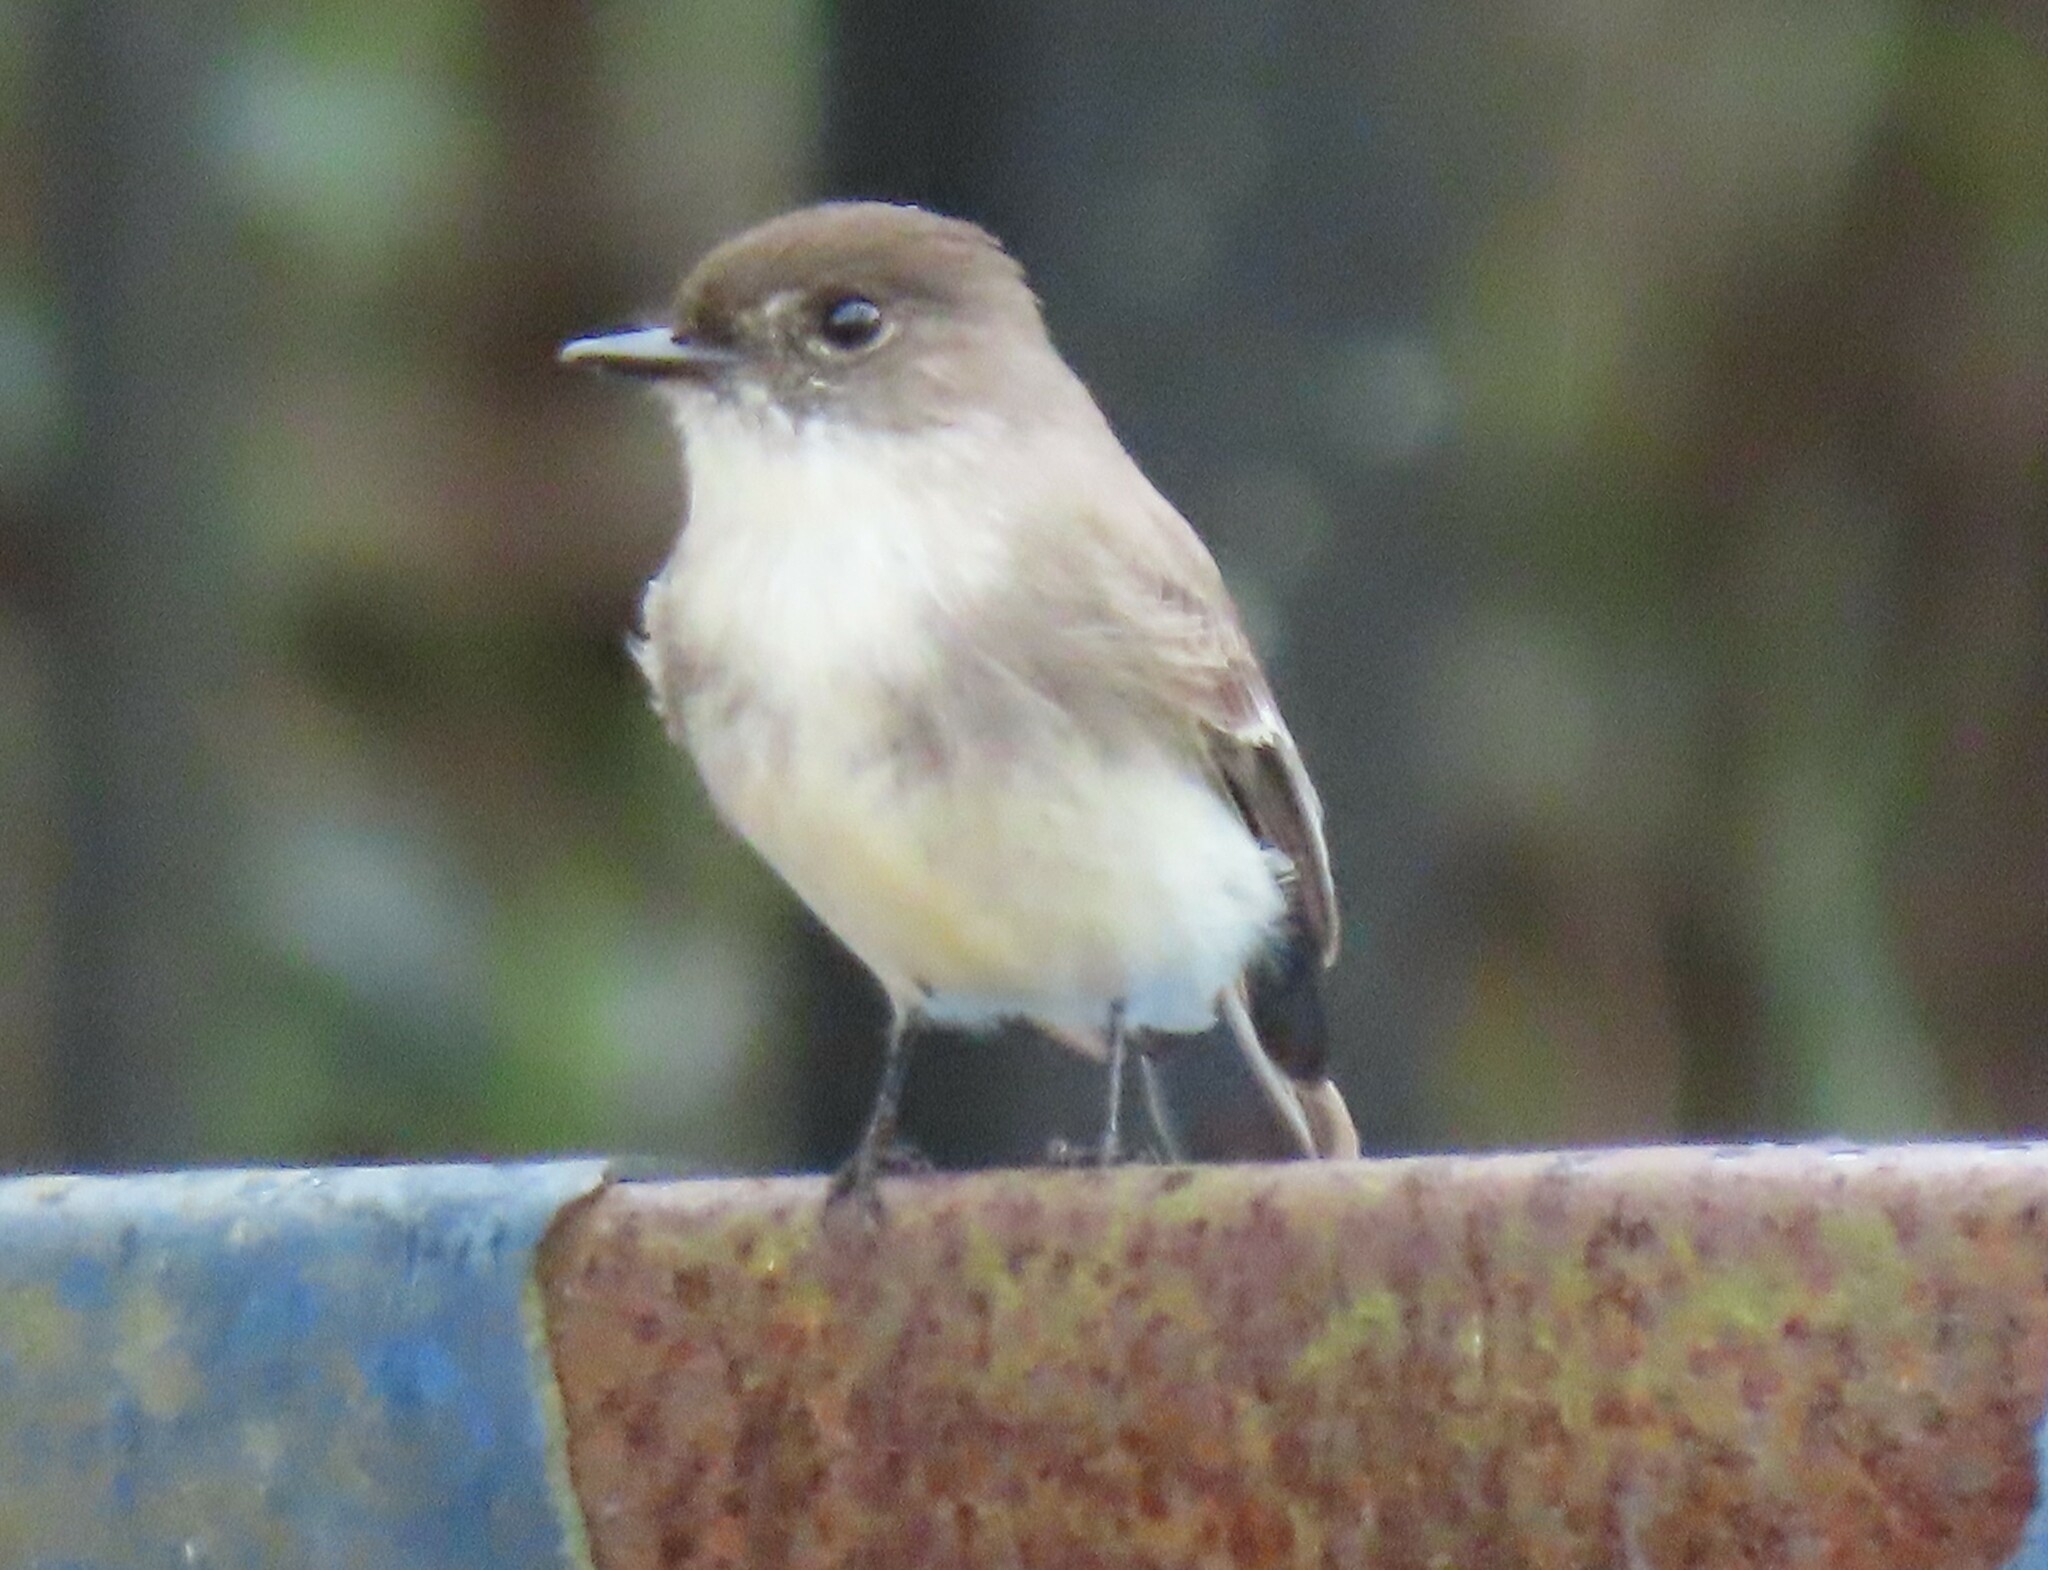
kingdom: Animalia
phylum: Chordata
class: Aves
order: Passeriformes
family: Tyrannidae
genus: Sayornis
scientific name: Sayornis phoebe
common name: Eastern phoebe
